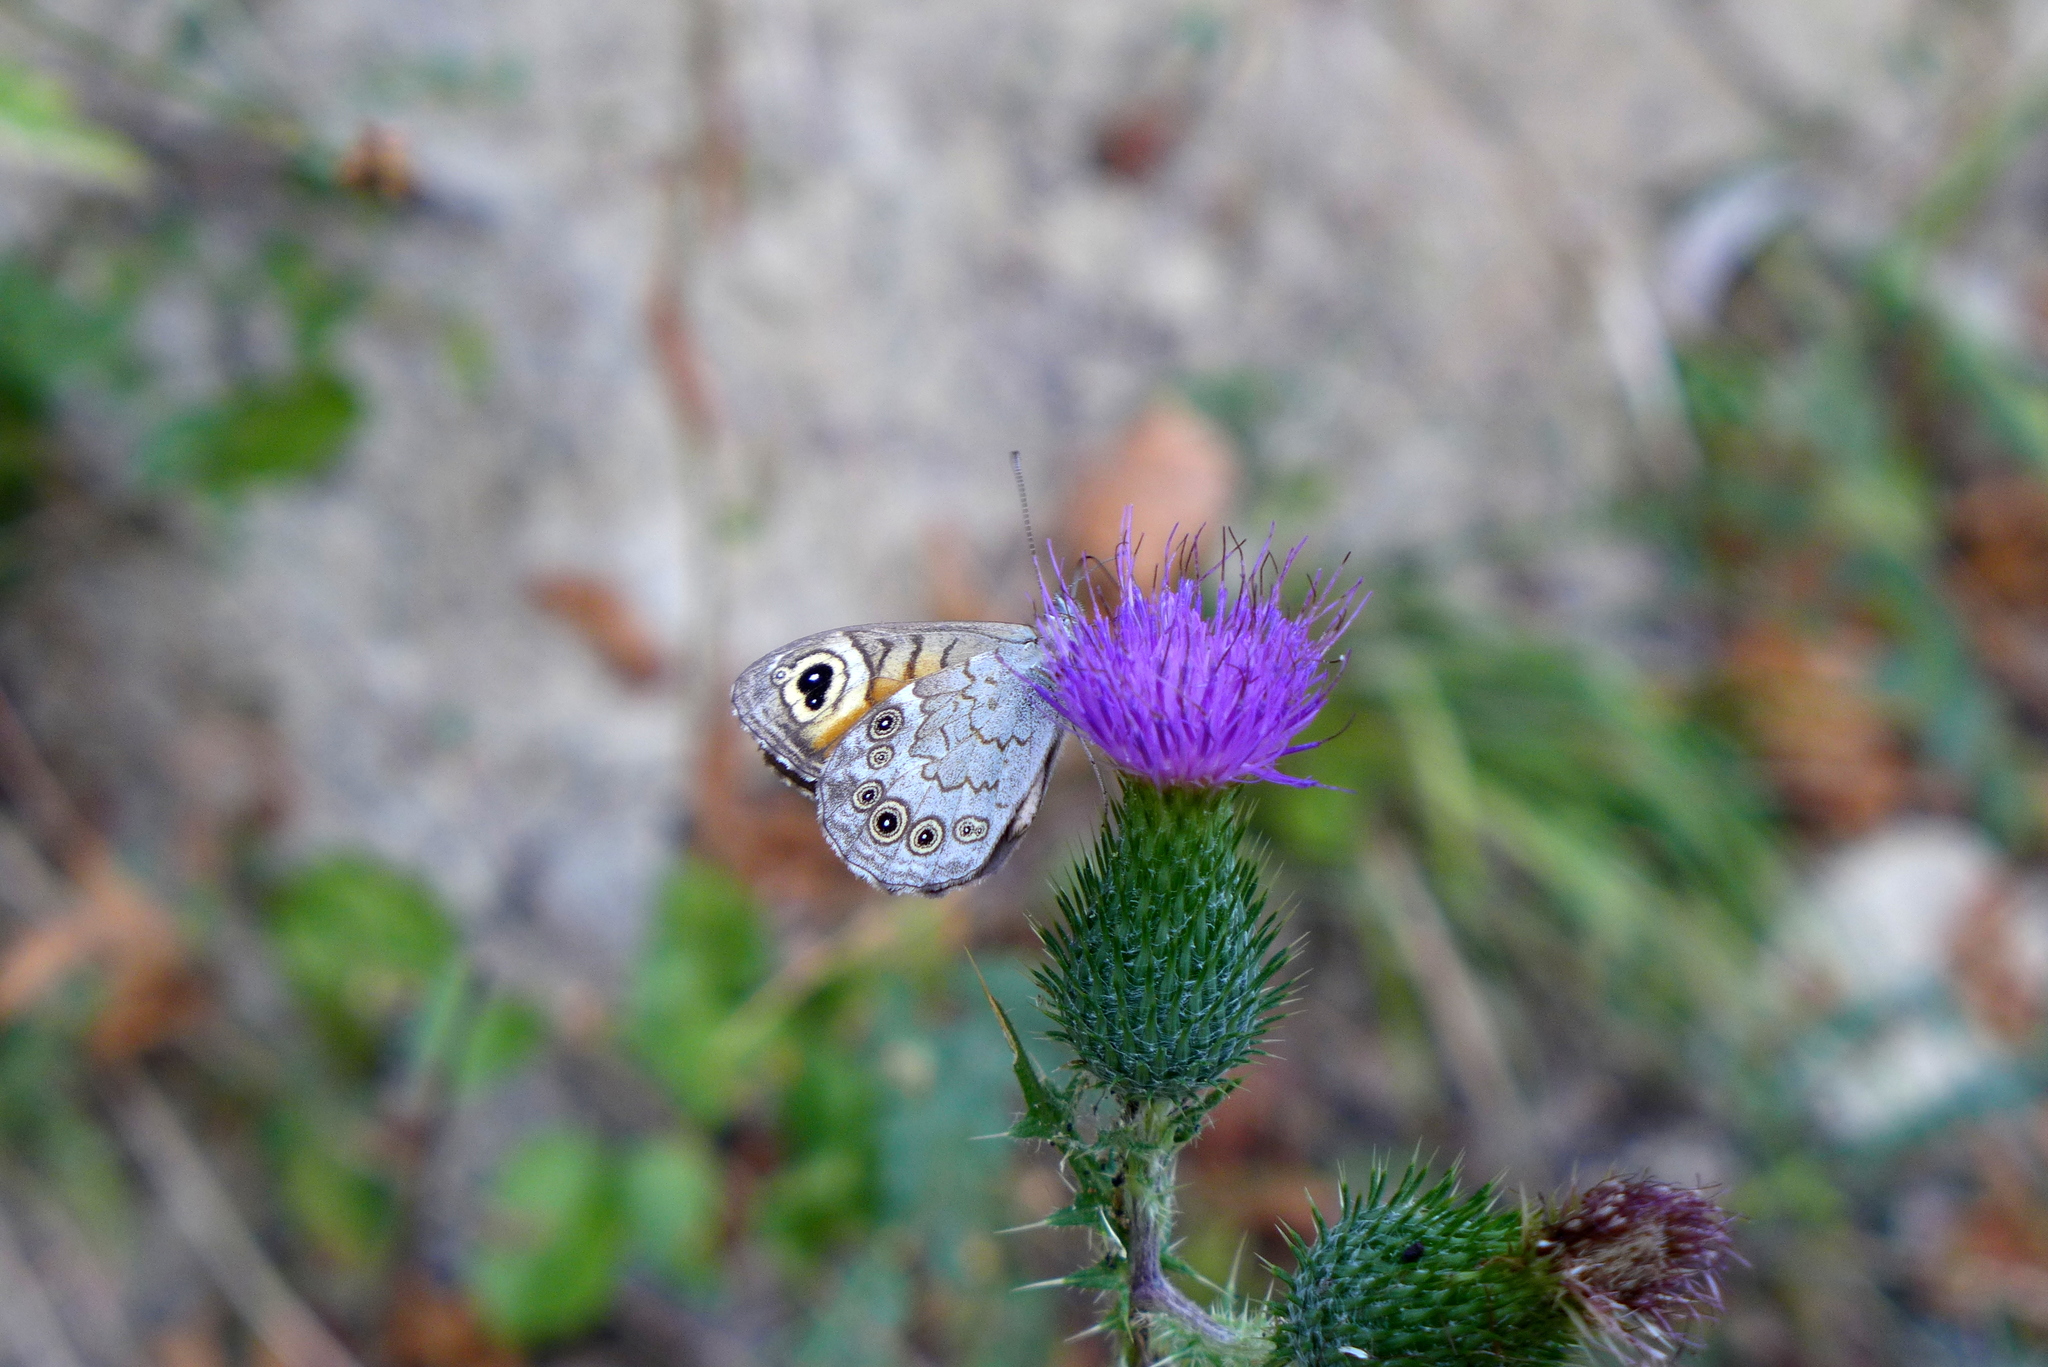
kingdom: Animalia
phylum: Arthropoda
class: Insecta
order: Lepidoptera
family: Nymphalidae
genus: Pararge
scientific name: Pararge Lasiommata maera
